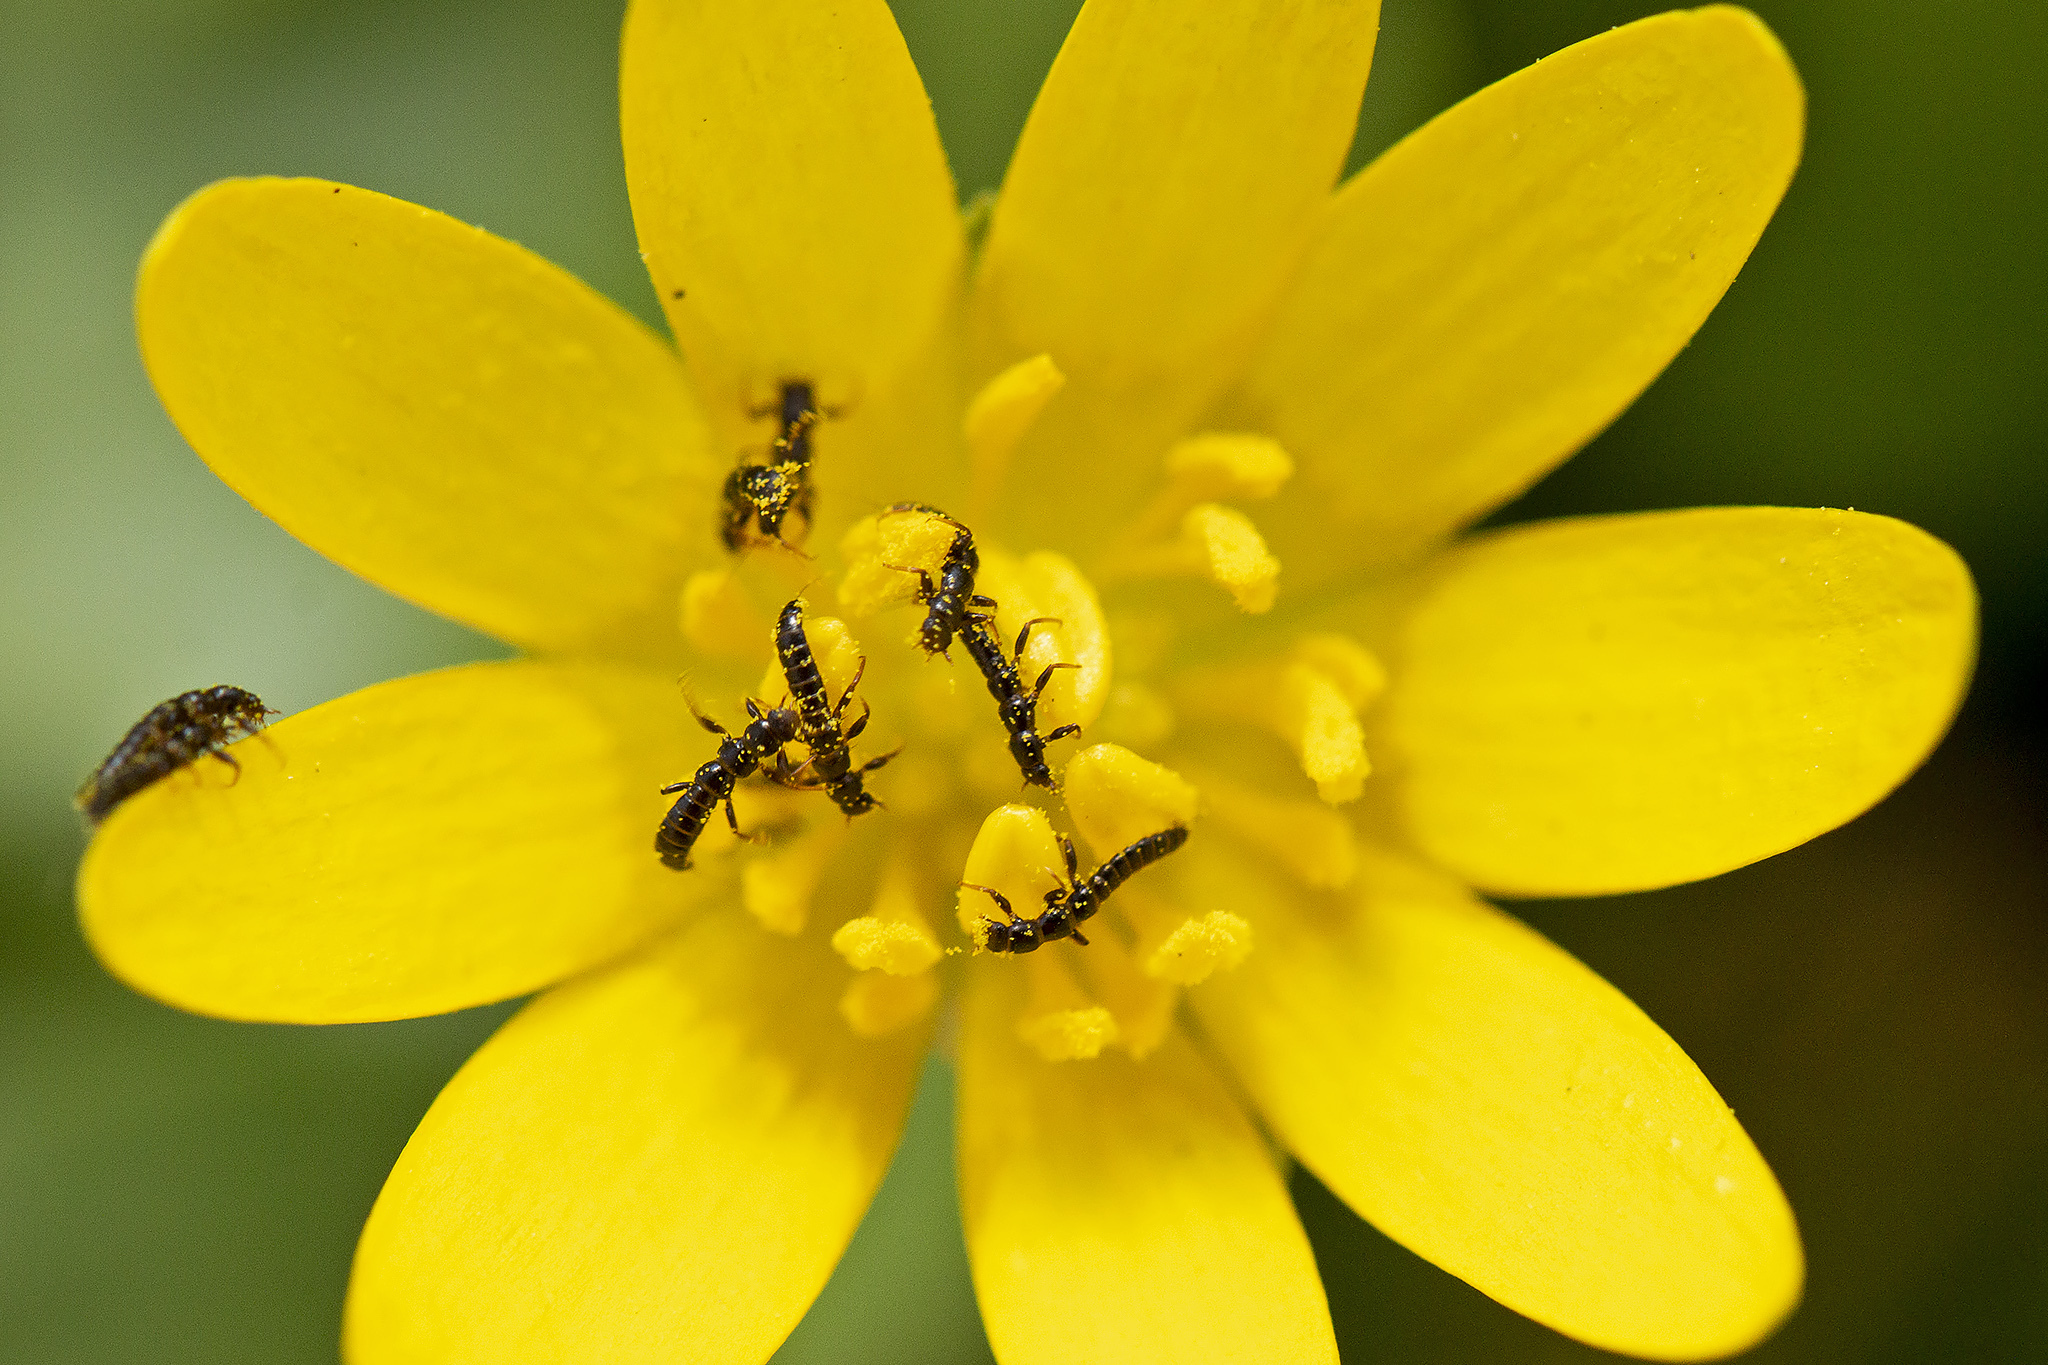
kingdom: Animalia
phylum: Arthropoda
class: Insecta
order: Coleoptera
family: Meloidae
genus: Meloe
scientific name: Meloe violaceus
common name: Violet oil-beetle
